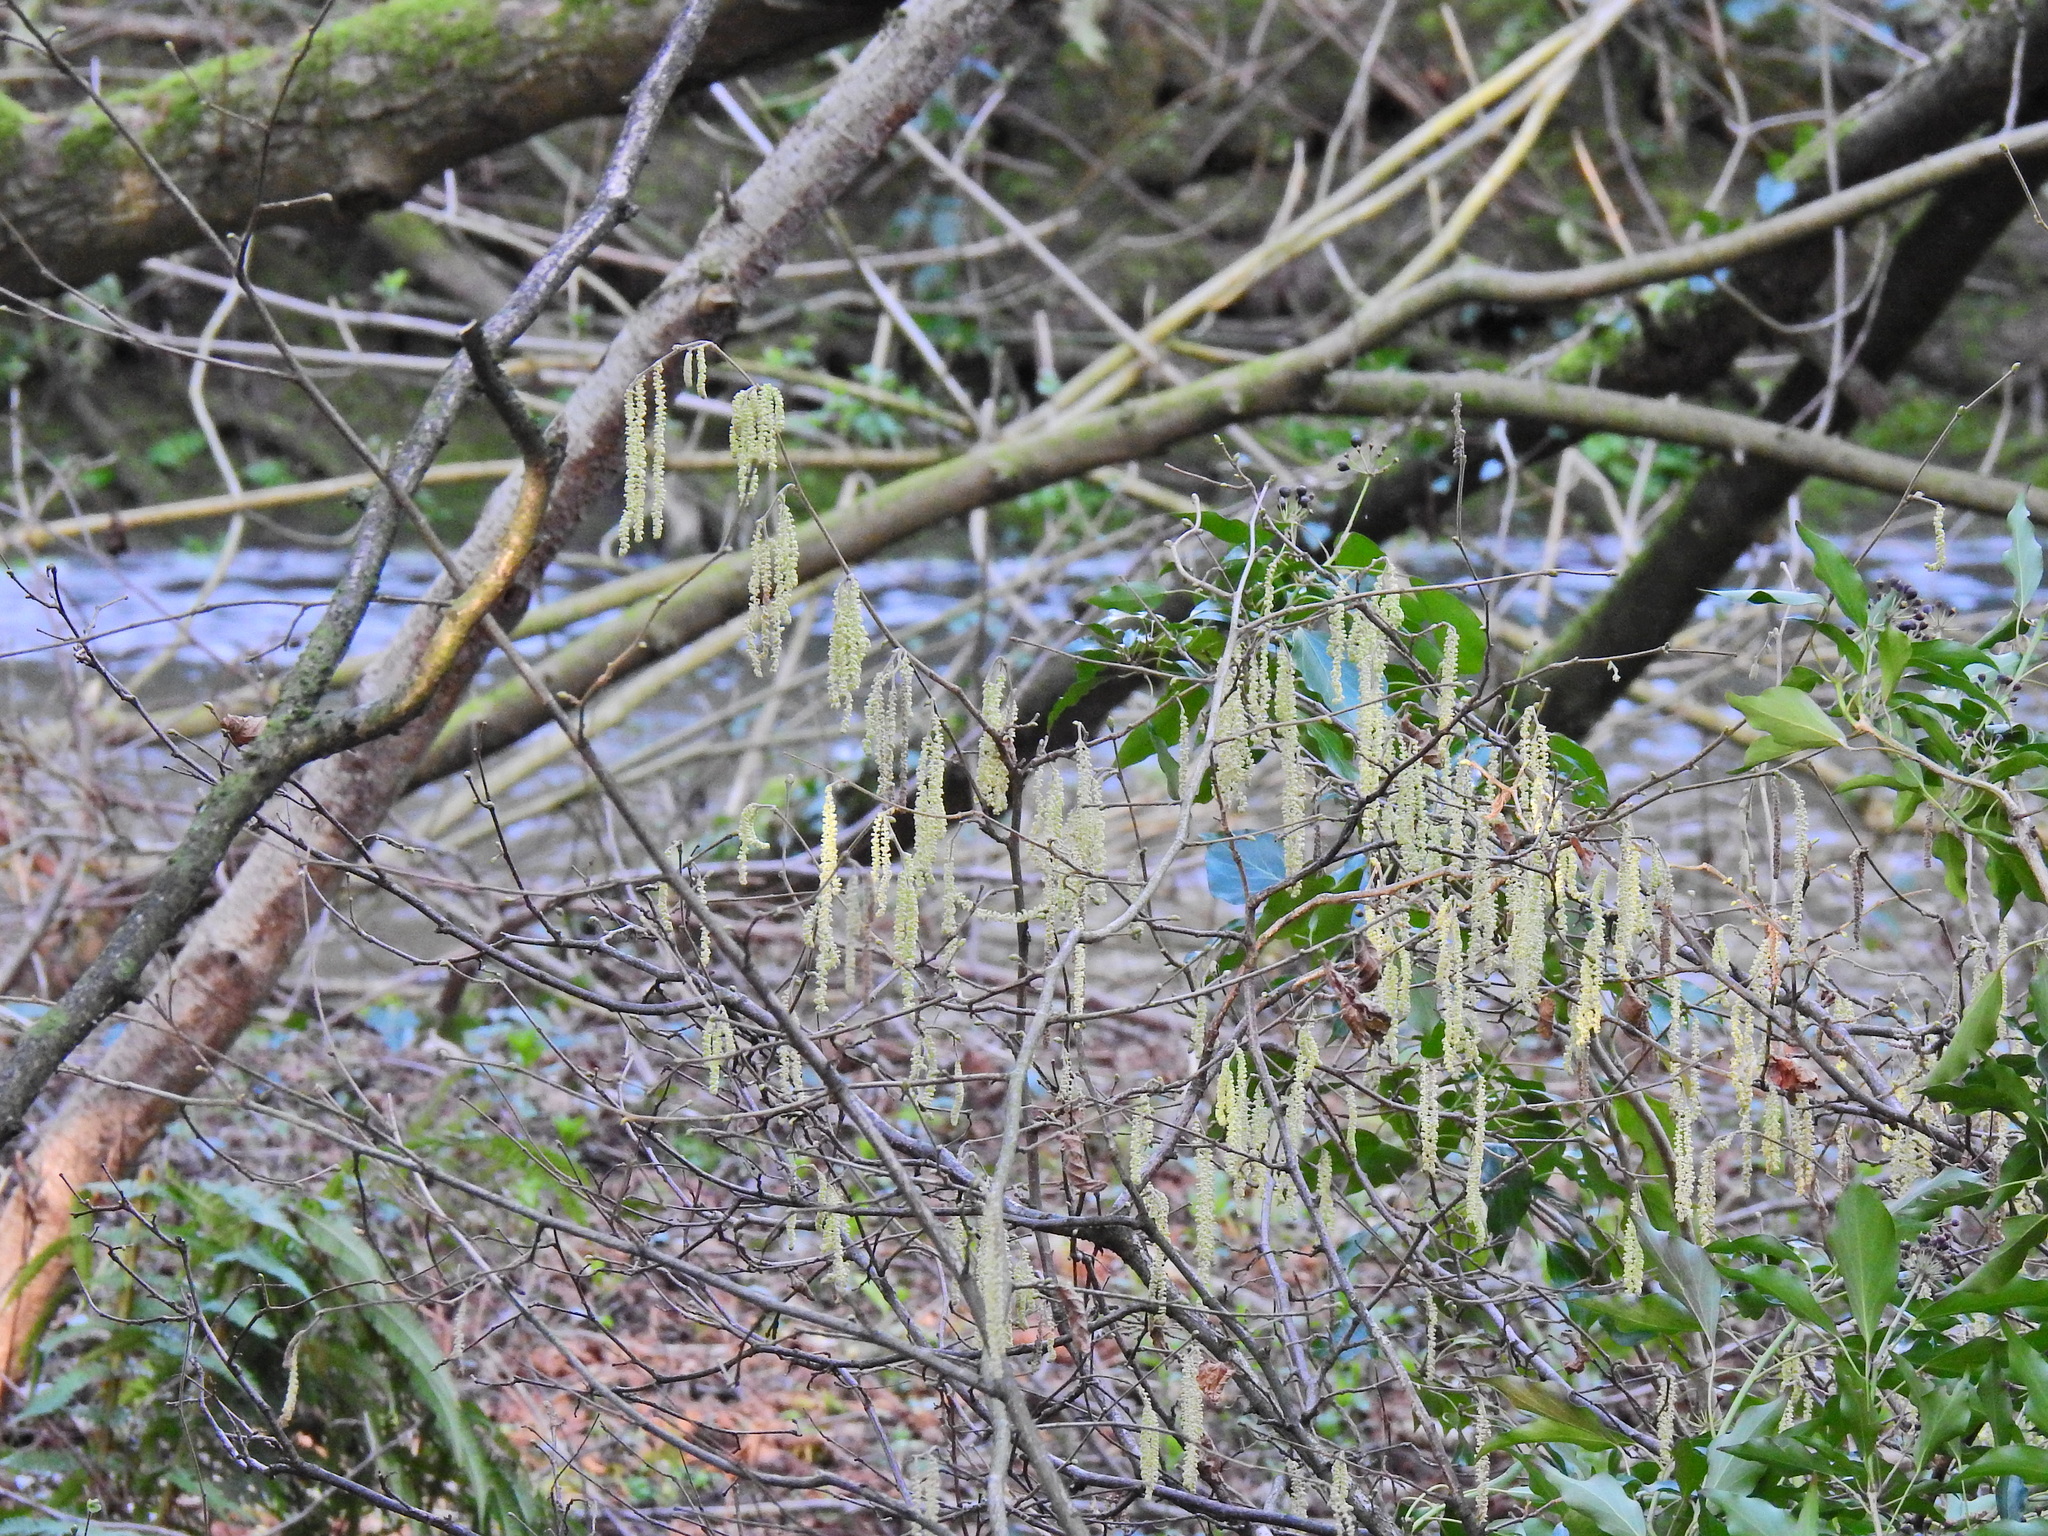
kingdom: Plantae
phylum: Tracheophyta
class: Magnoliopsida
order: Fagales
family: Betulaceae
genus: Corylus
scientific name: Corylus avellana
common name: European hazel
